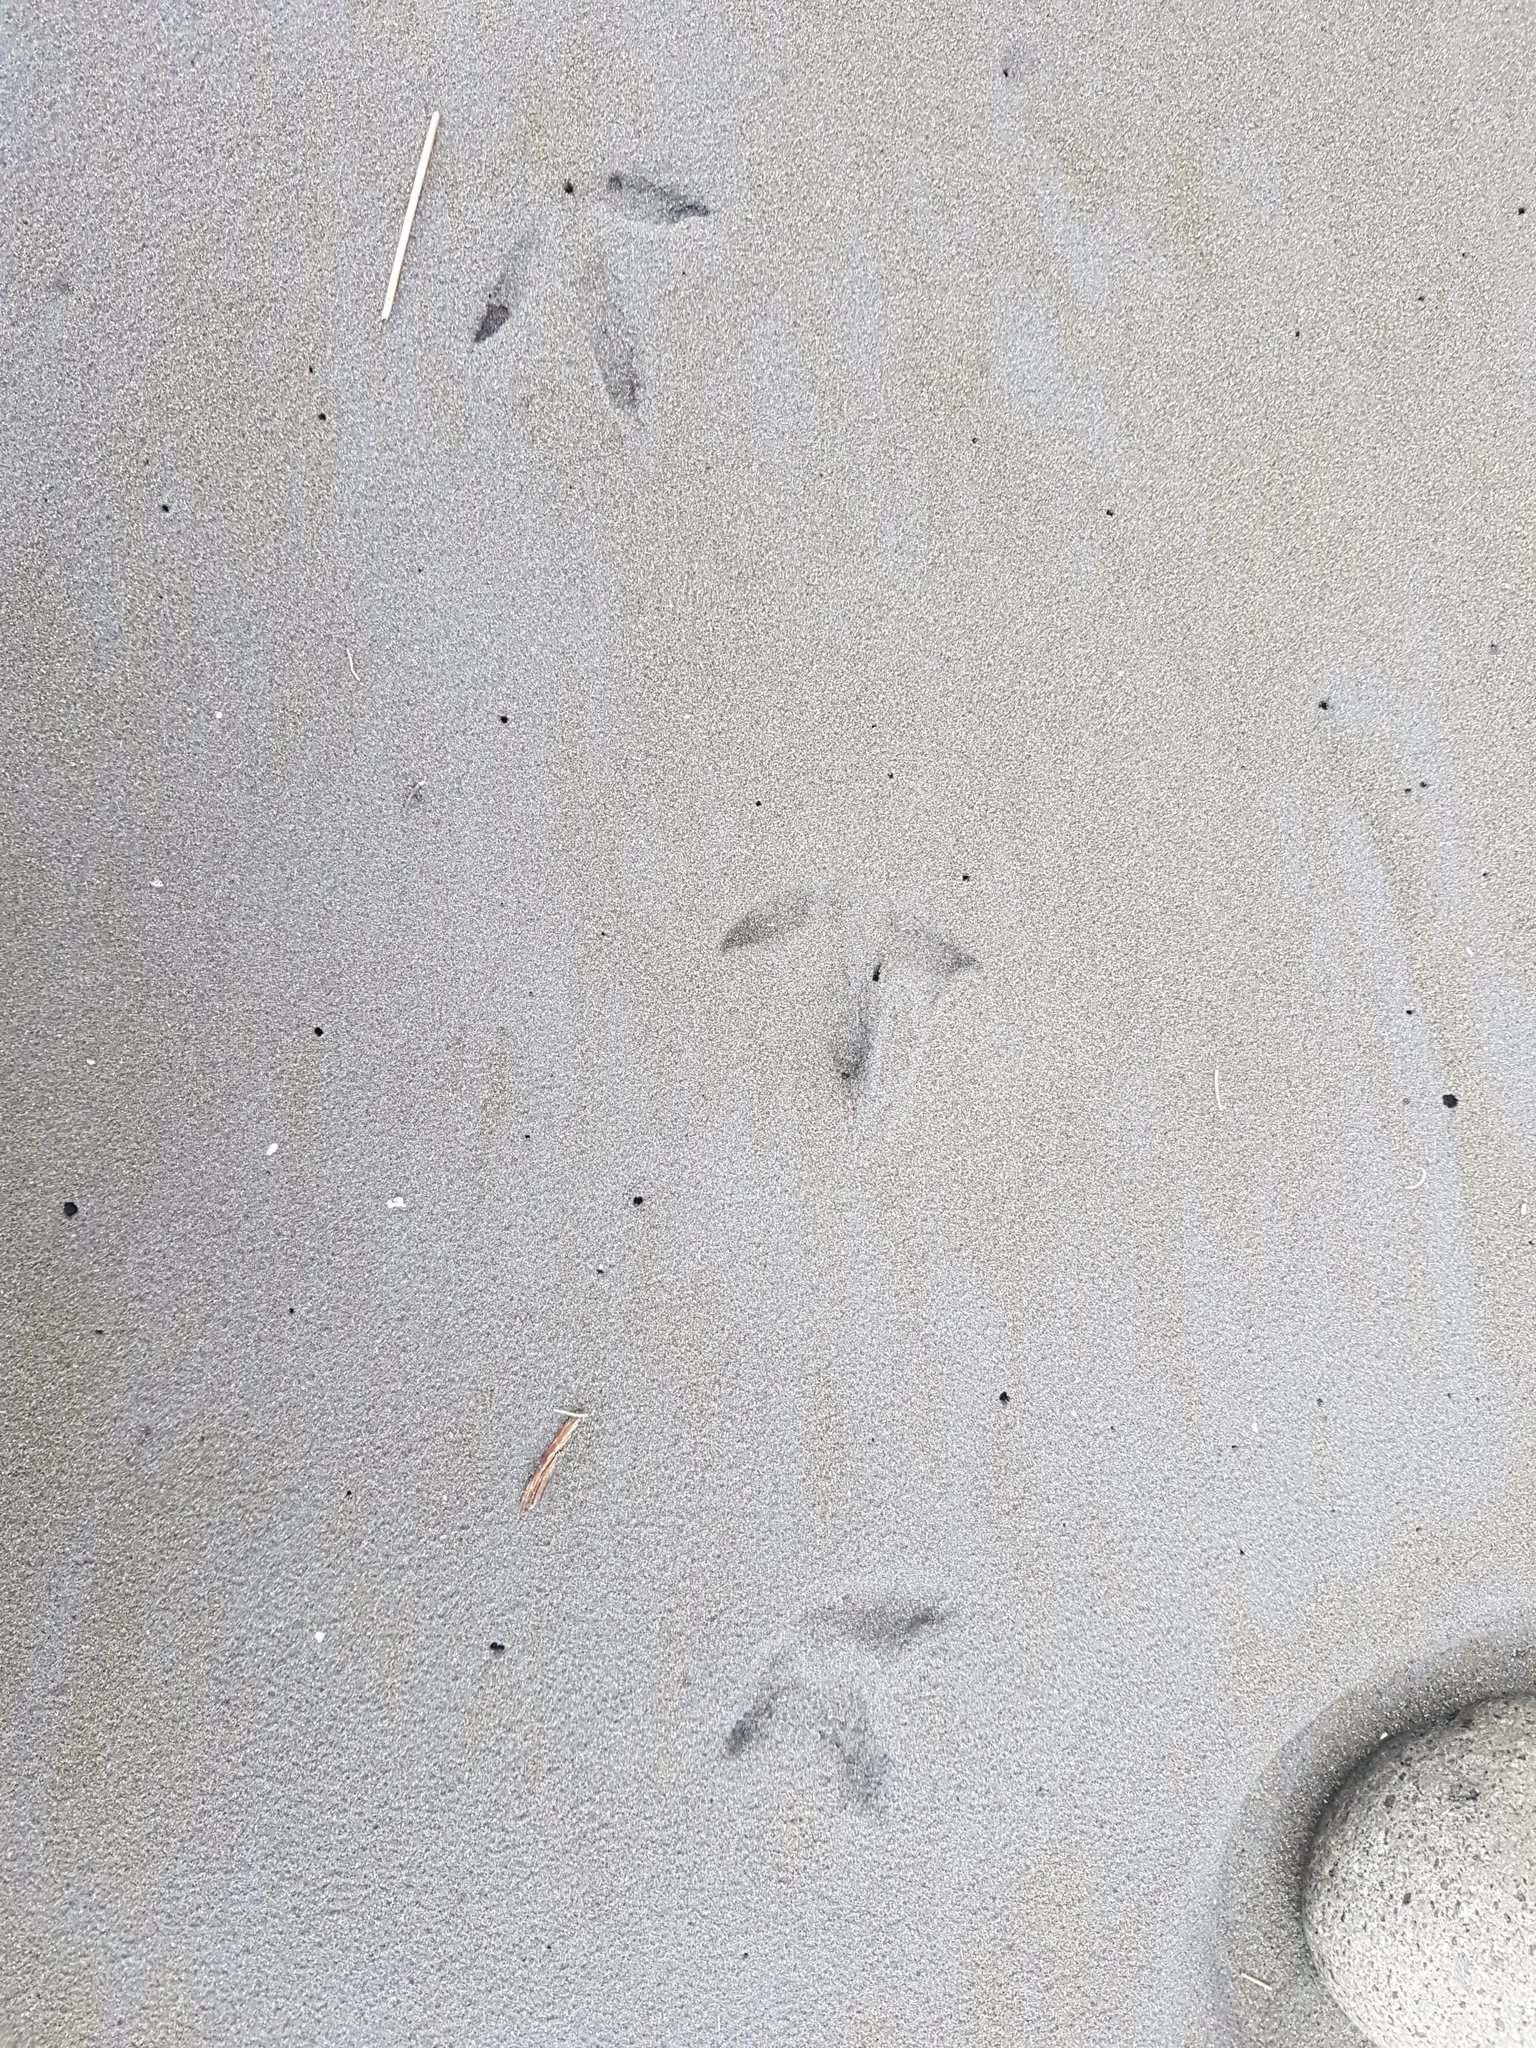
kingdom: Animalia
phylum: Chordata
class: Aves
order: Charadriiformes
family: Haematopodidae
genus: Haematopus
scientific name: Haematopus unicolor
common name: Variable oystercatcher
